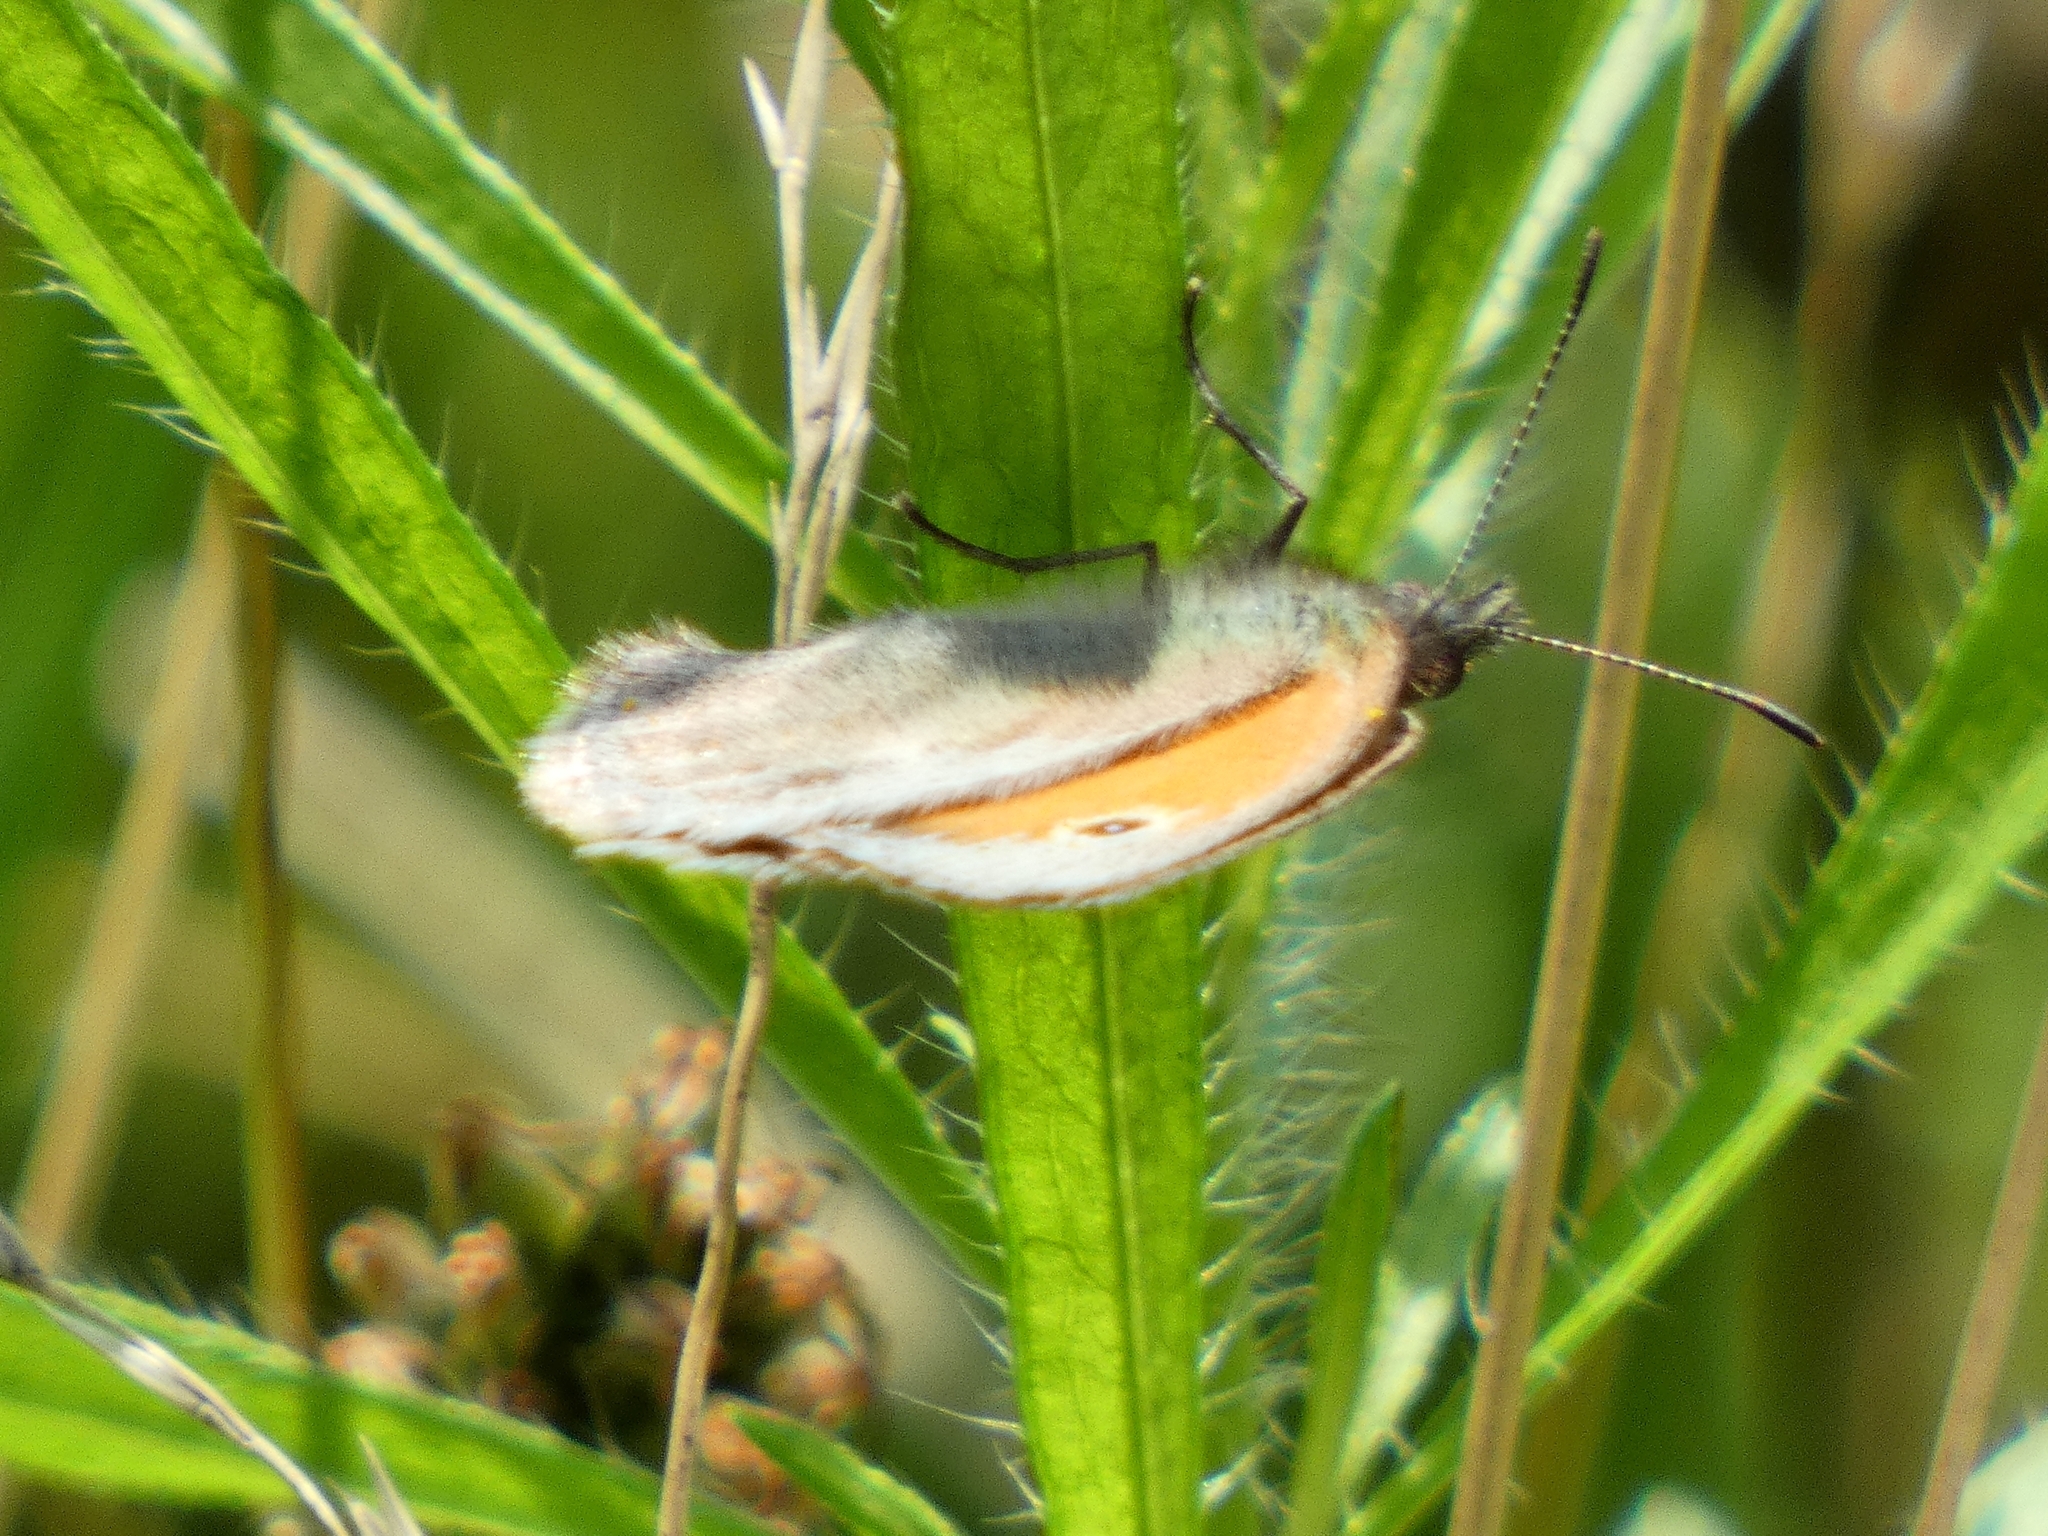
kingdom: Animalia
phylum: Arthropoda
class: Insecta
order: Lepidoptera
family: Nymphalidae
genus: Coenonympha
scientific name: Coenonympha pamphilus
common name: Small heath
